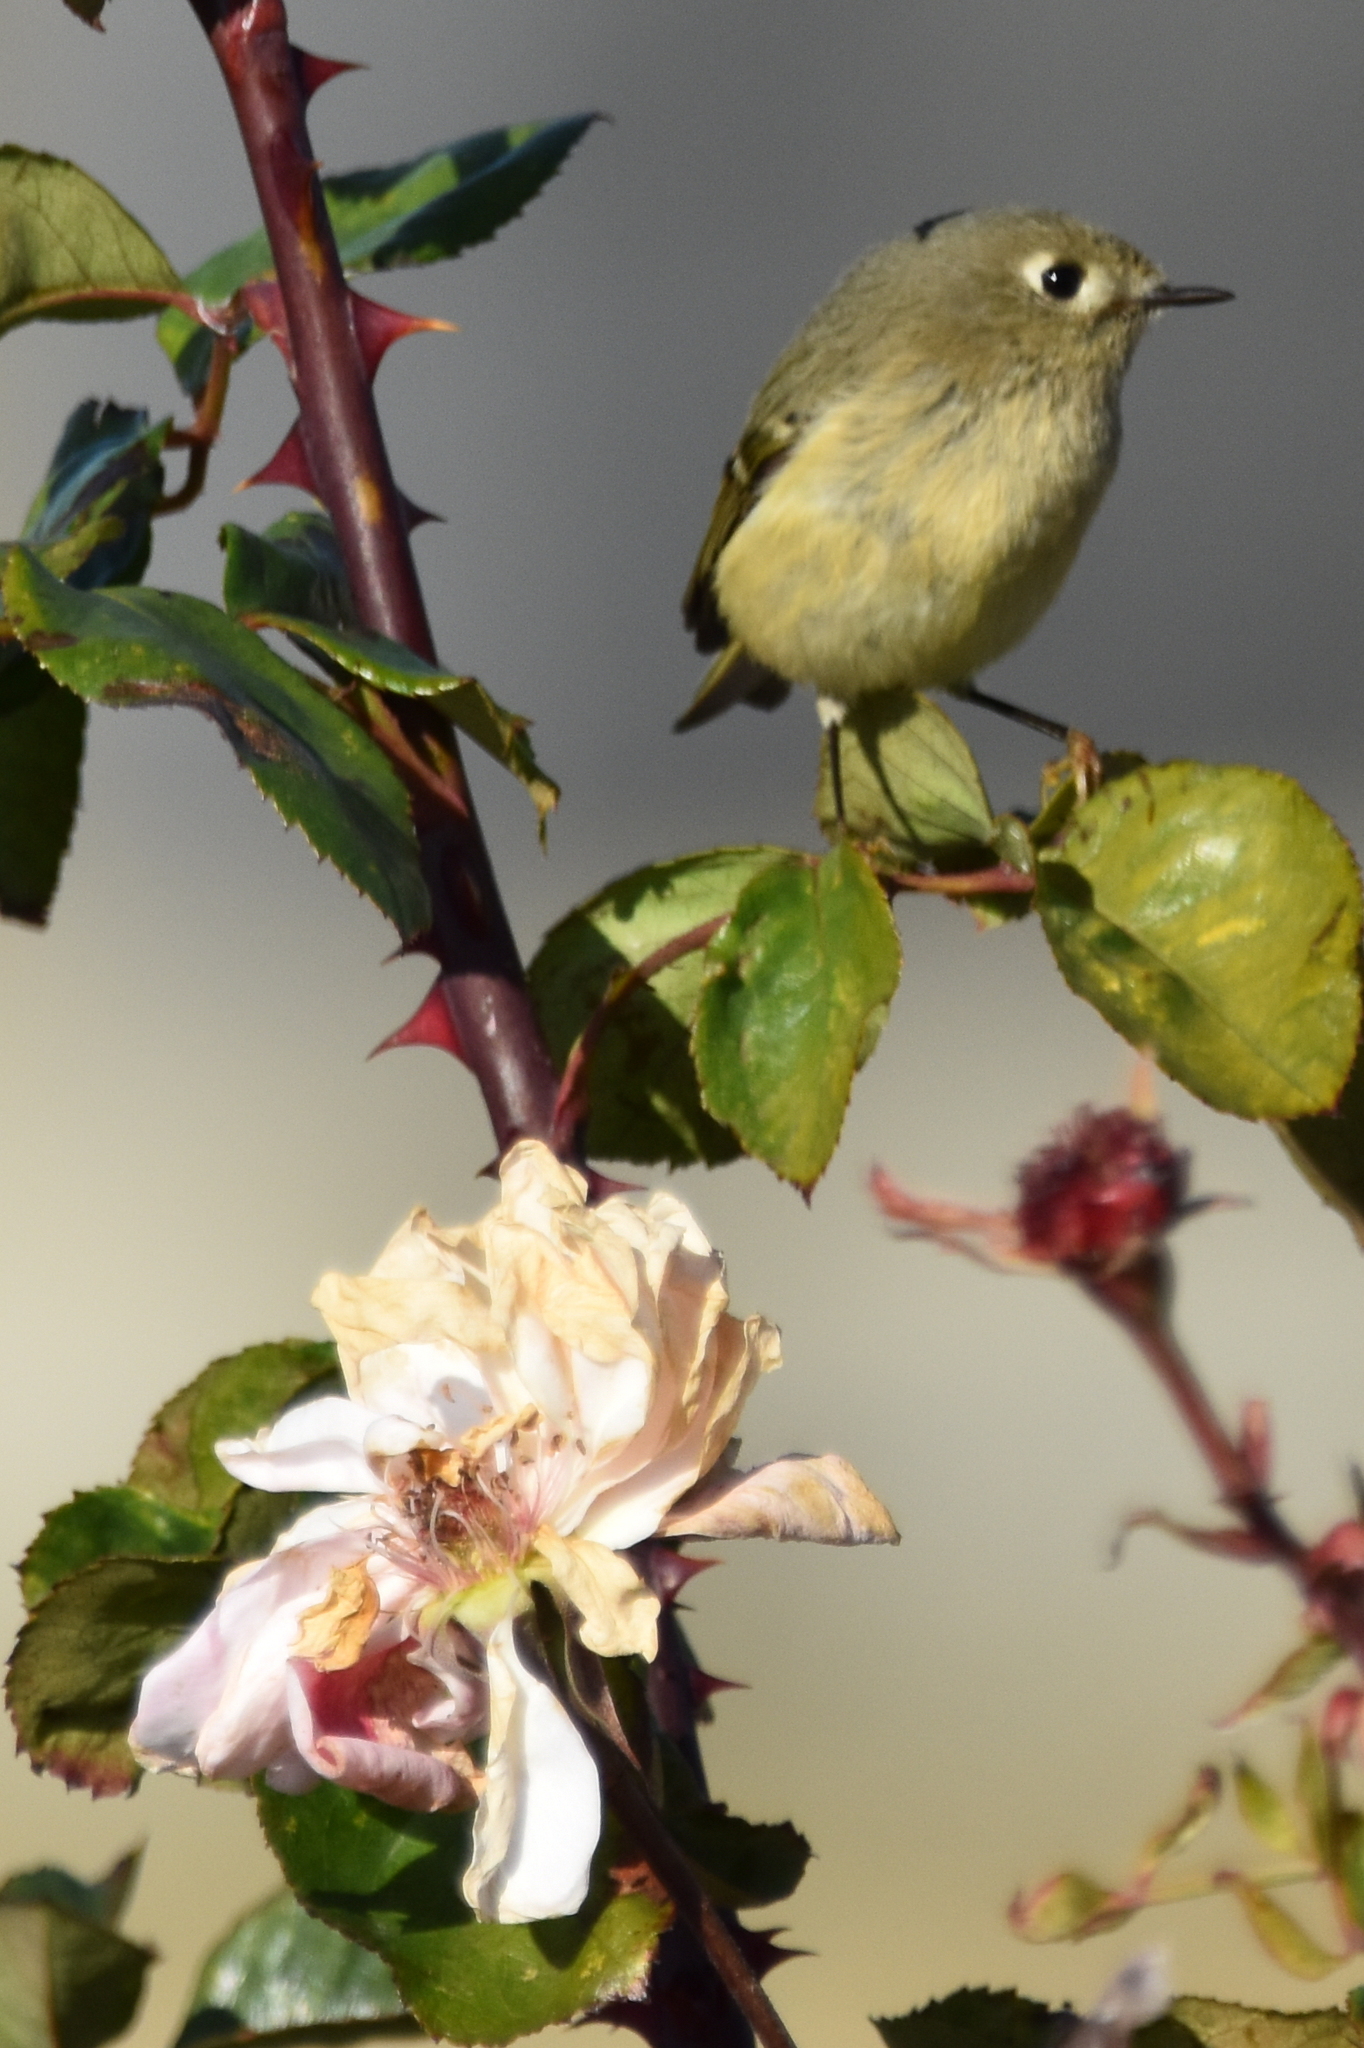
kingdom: Animalia
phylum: Chordata
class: Aves
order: Passeriformes
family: Regulidae
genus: Regulus
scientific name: Regulus calendula
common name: Ruby-crowned kinglet
